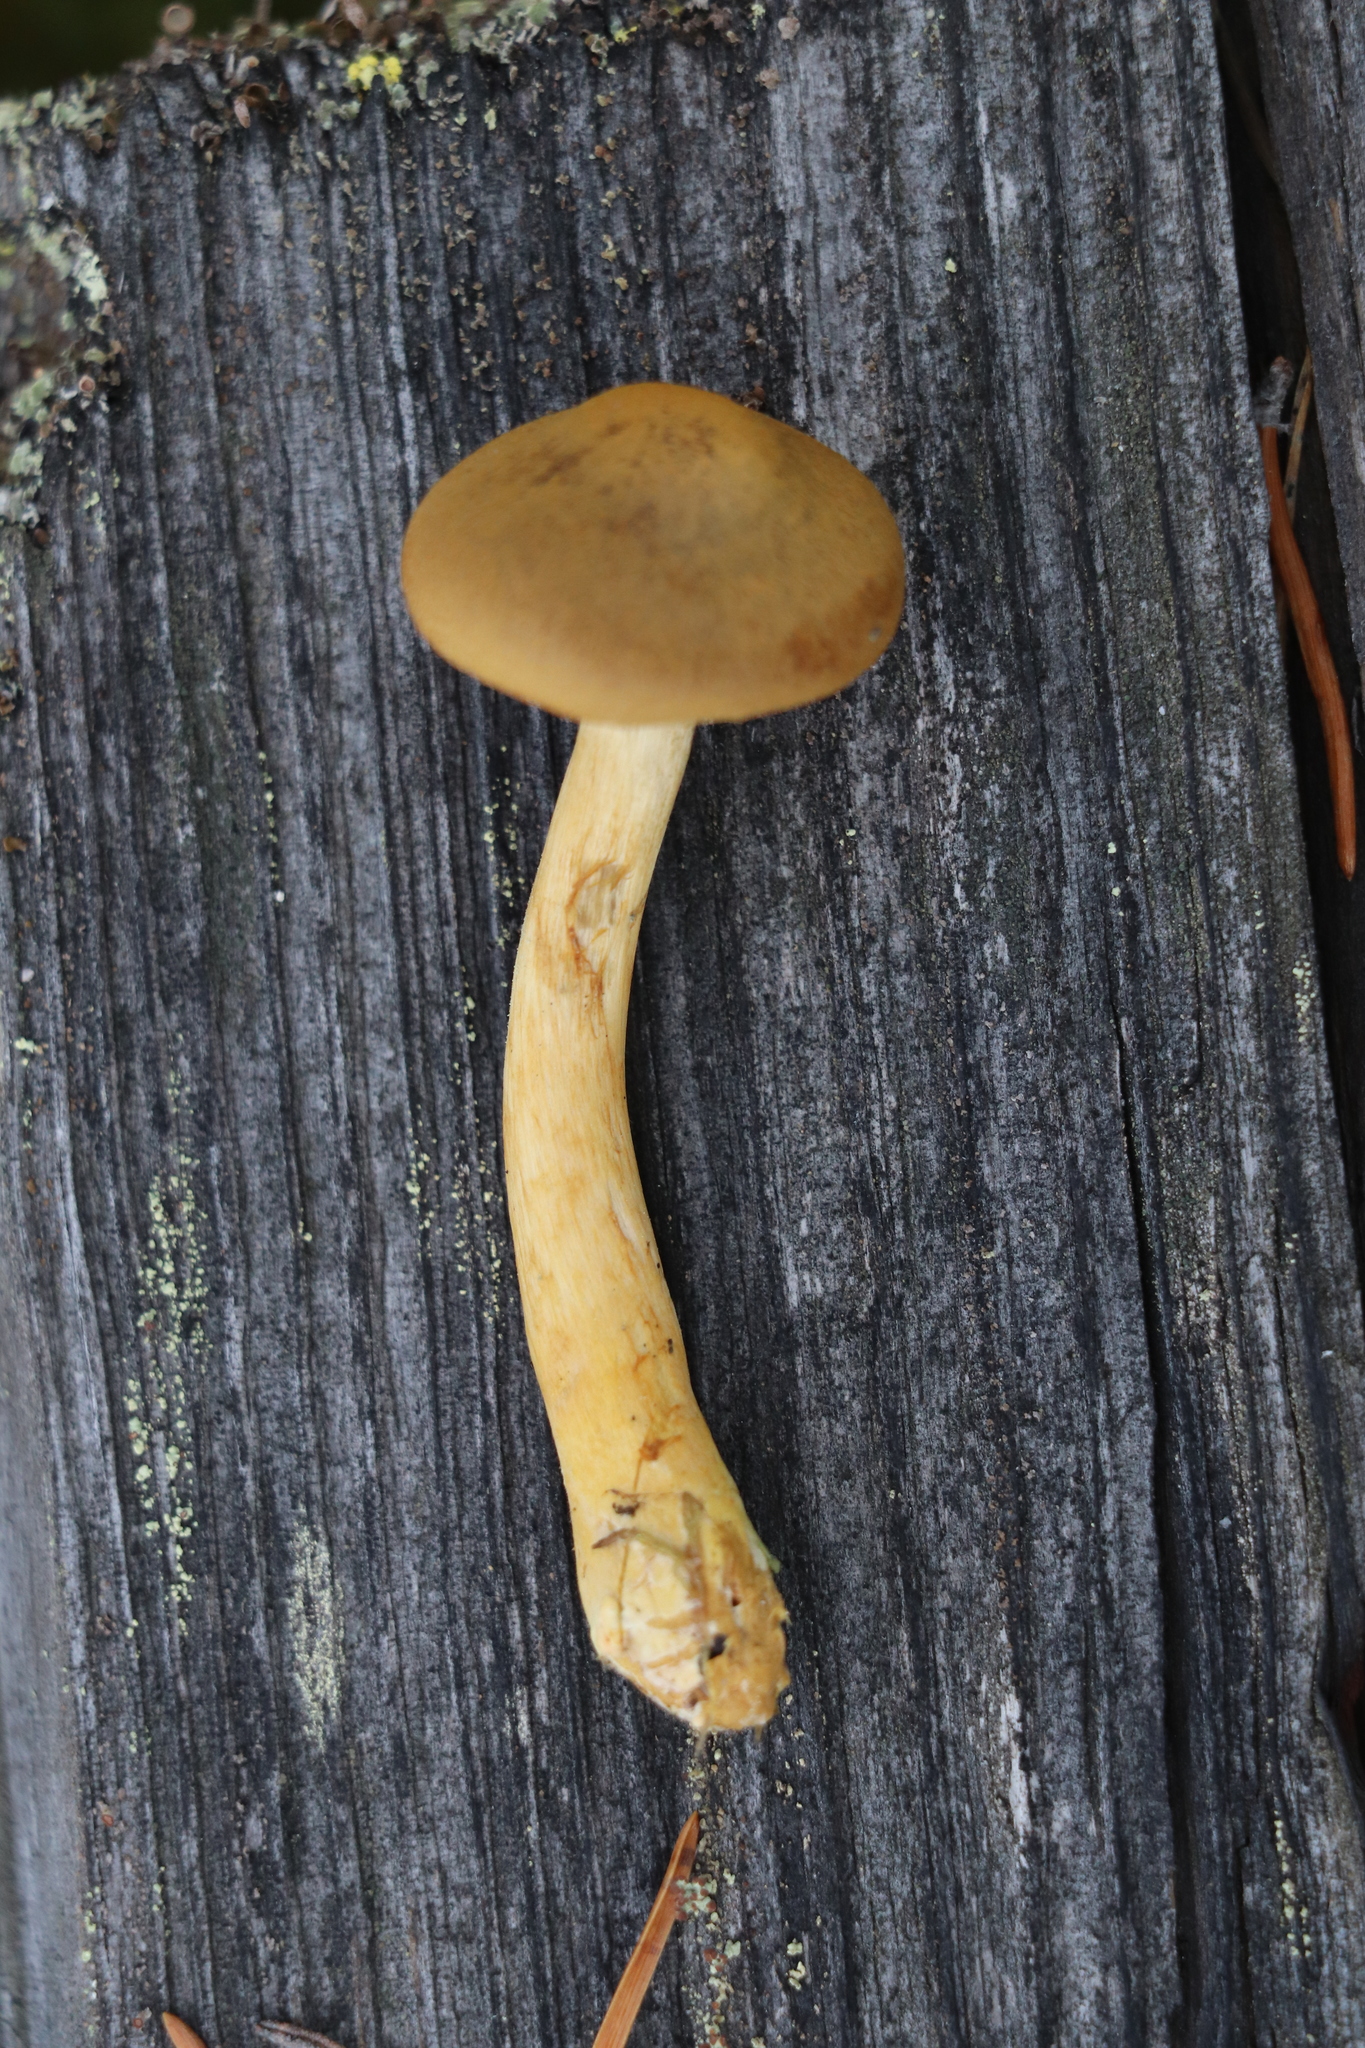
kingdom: Fungi
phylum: Basidiomycota
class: Agaricomycetes
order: Agaricales
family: Cortinariaceae
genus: Cortinarius
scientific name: Cortinarius semisanguineus
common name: Surprise webcap
